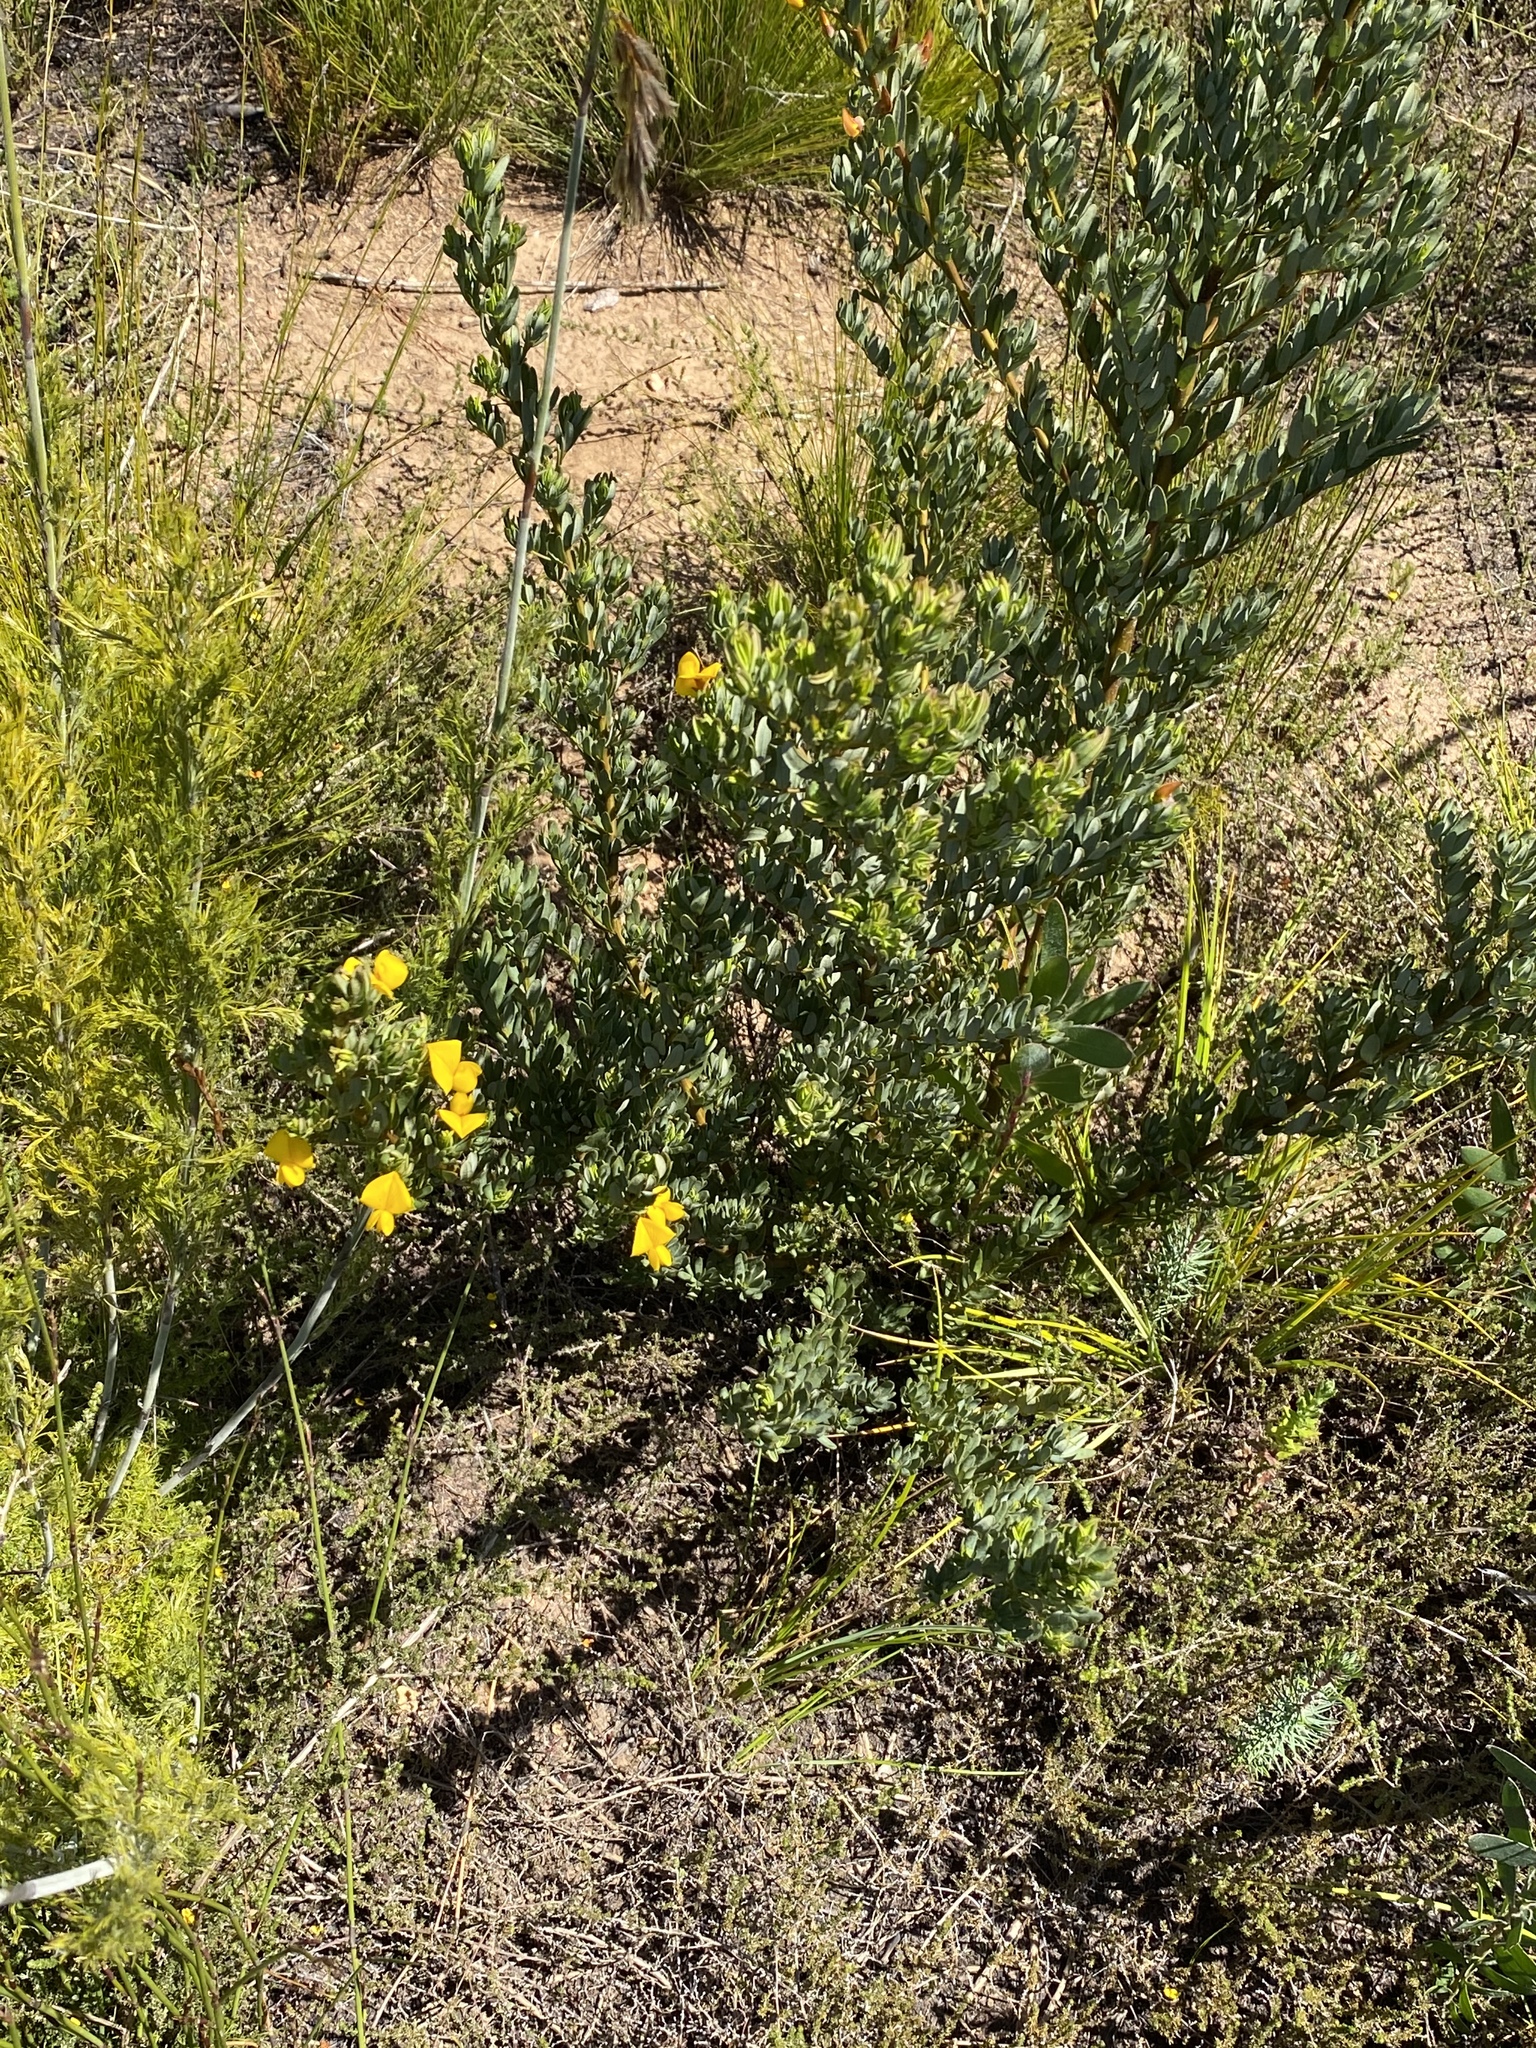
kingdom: Plantae
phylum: Tracheophyta
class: Magnoliopsida
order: Fabales
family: Fabaceae
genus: Cyclopia
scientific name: Cyclopia subternata
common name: Honeybush tea
